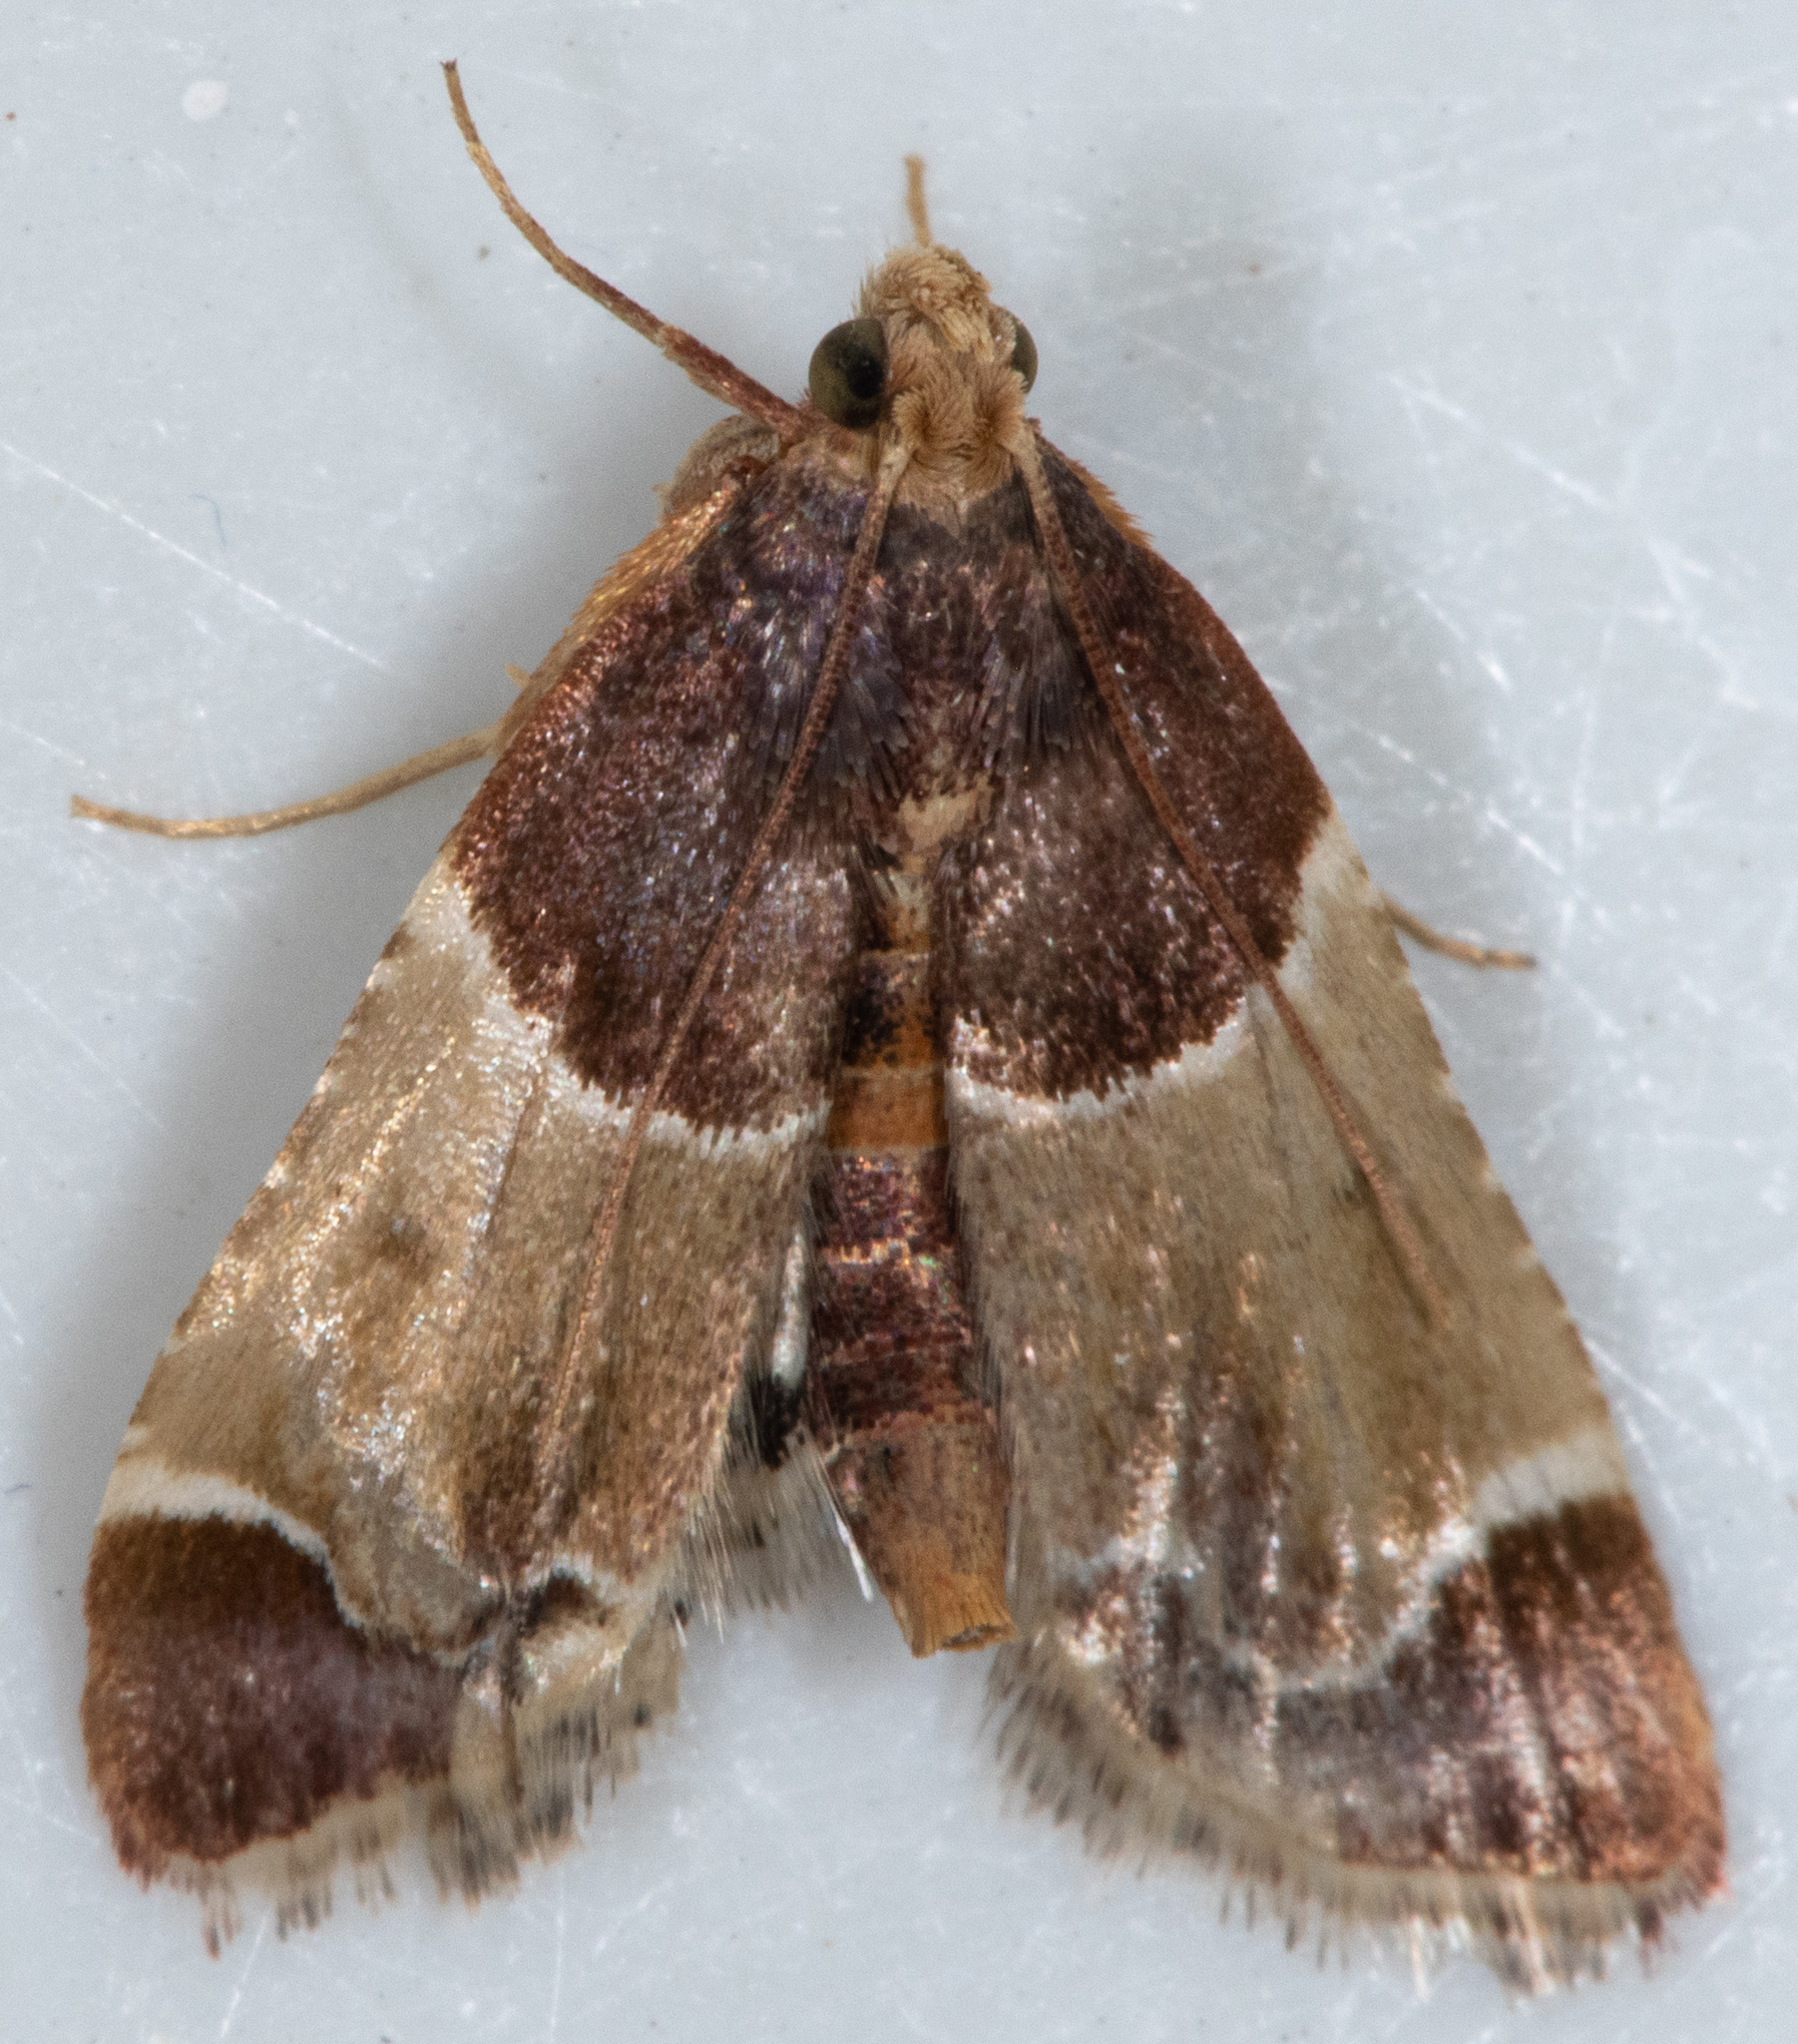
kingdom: Animalia
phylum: Arthropoda
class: Insecta
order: Lepidoptera
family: Pyralidae
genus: Pyralis
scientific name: Pyralis farinalis
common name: Meal moth
